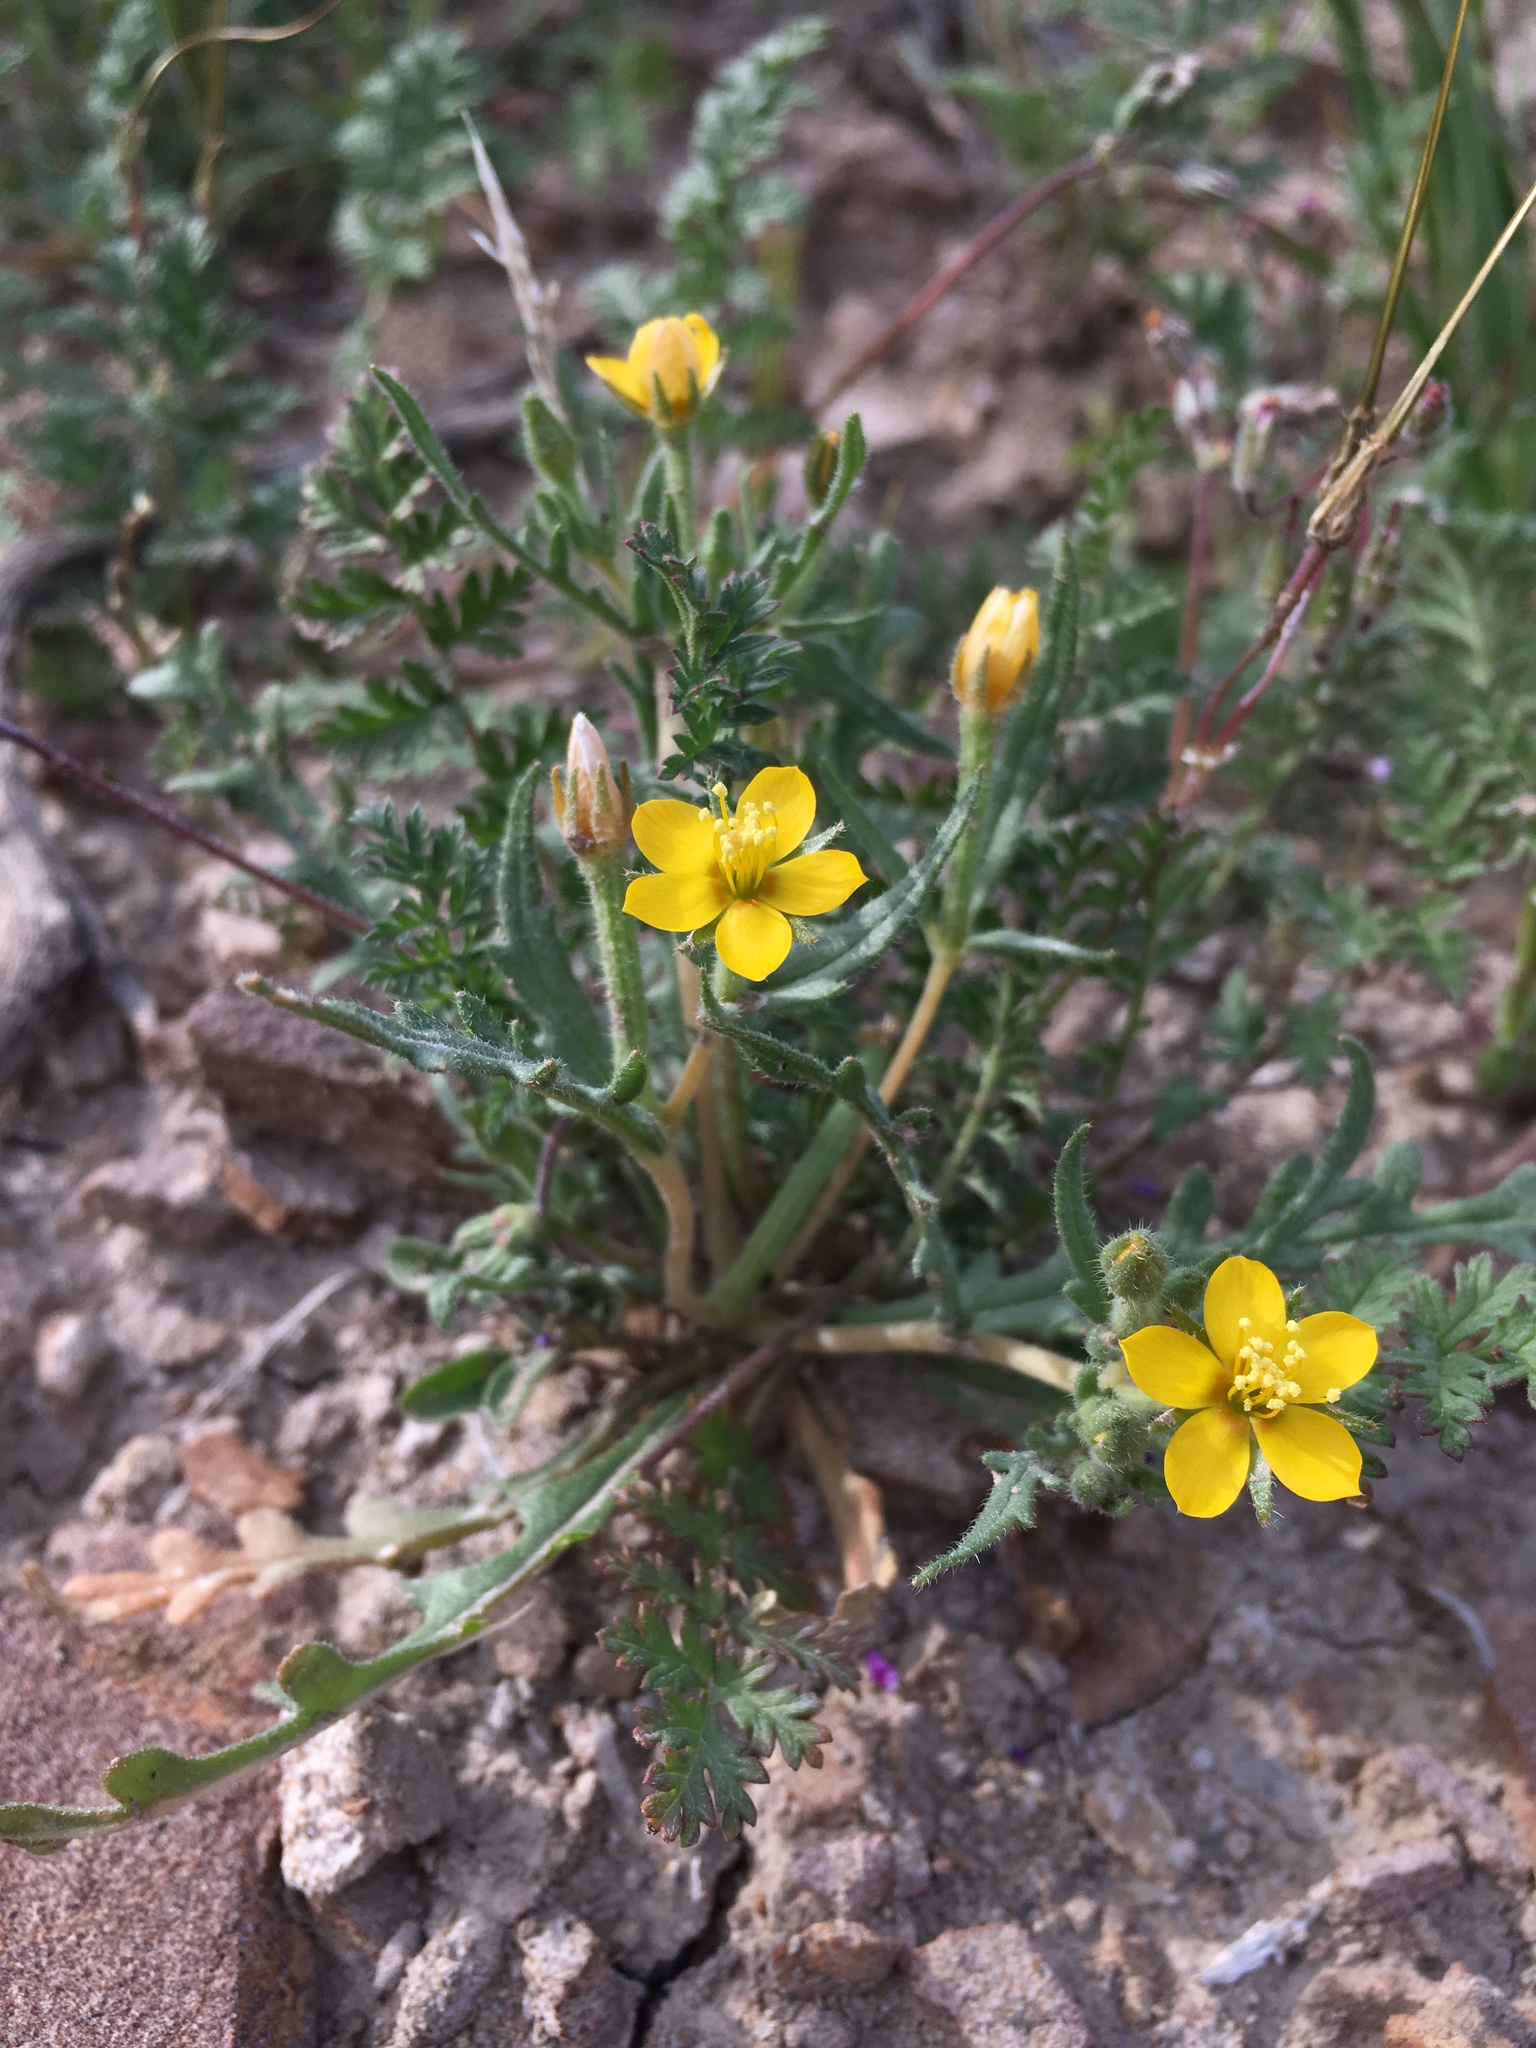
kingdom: Plantae
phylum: Tracheophyta
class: Magnoliopsida
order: Cornales
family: Loasaceae
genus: Mentzelia
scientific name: Mentzelia affinis
